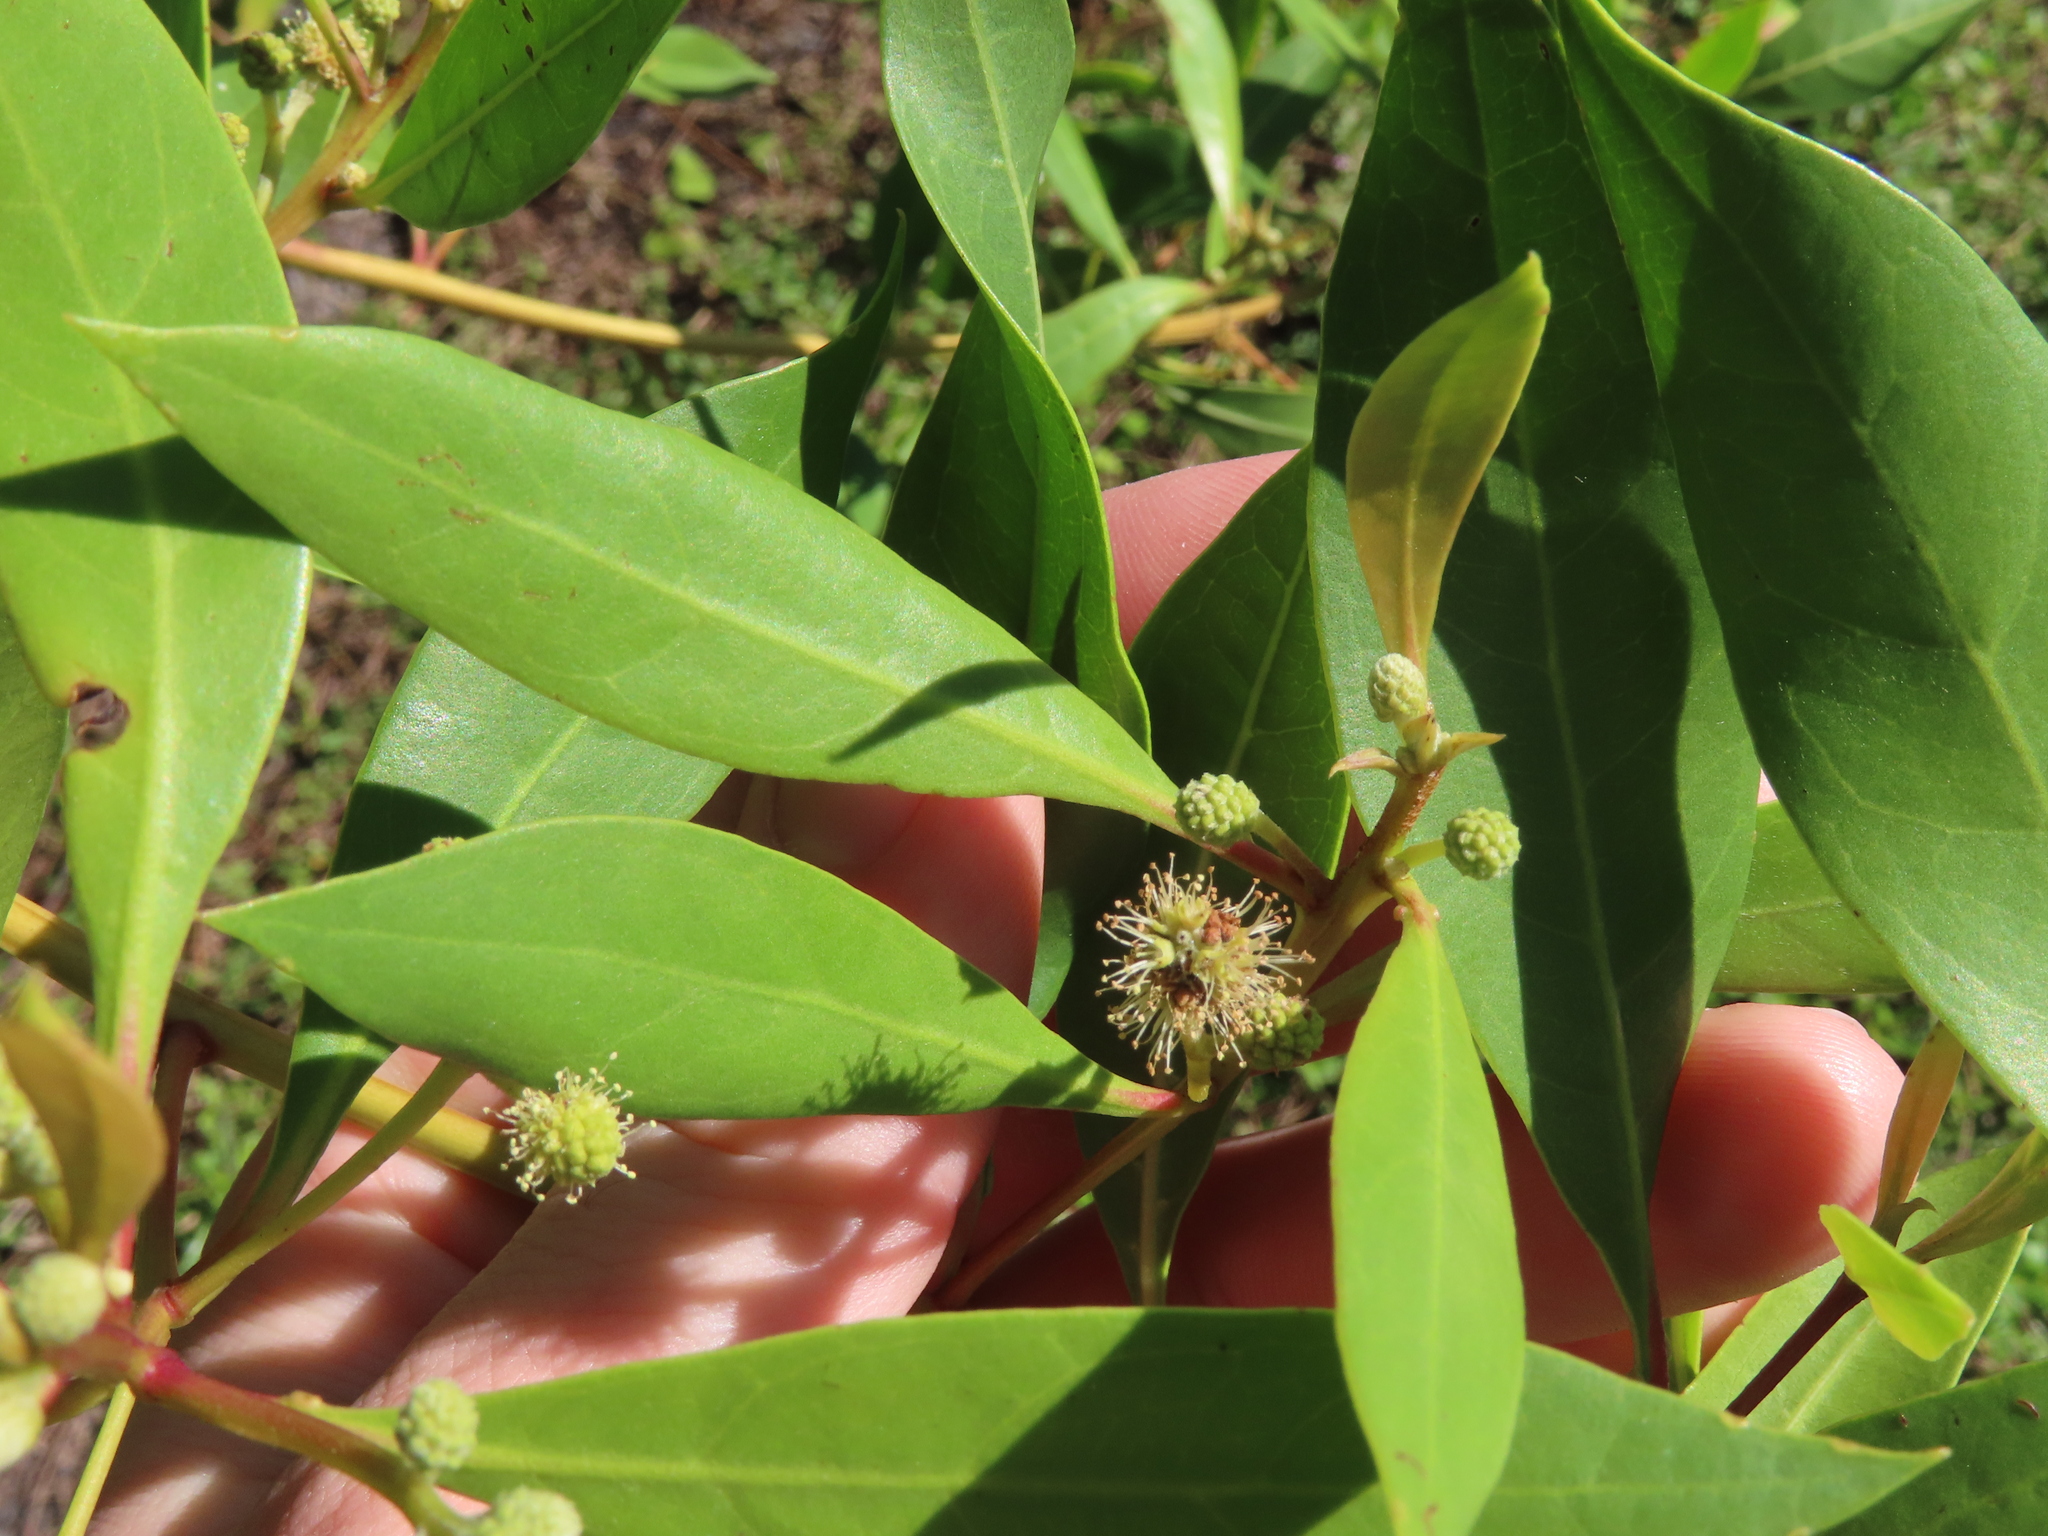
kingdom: Plantae
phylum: Tracheophyta
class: Magnoliopsida
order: Myrtales
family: Combretaceae
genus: Conocarpus
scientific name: Conocarpus erectus
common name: Button mangrove
